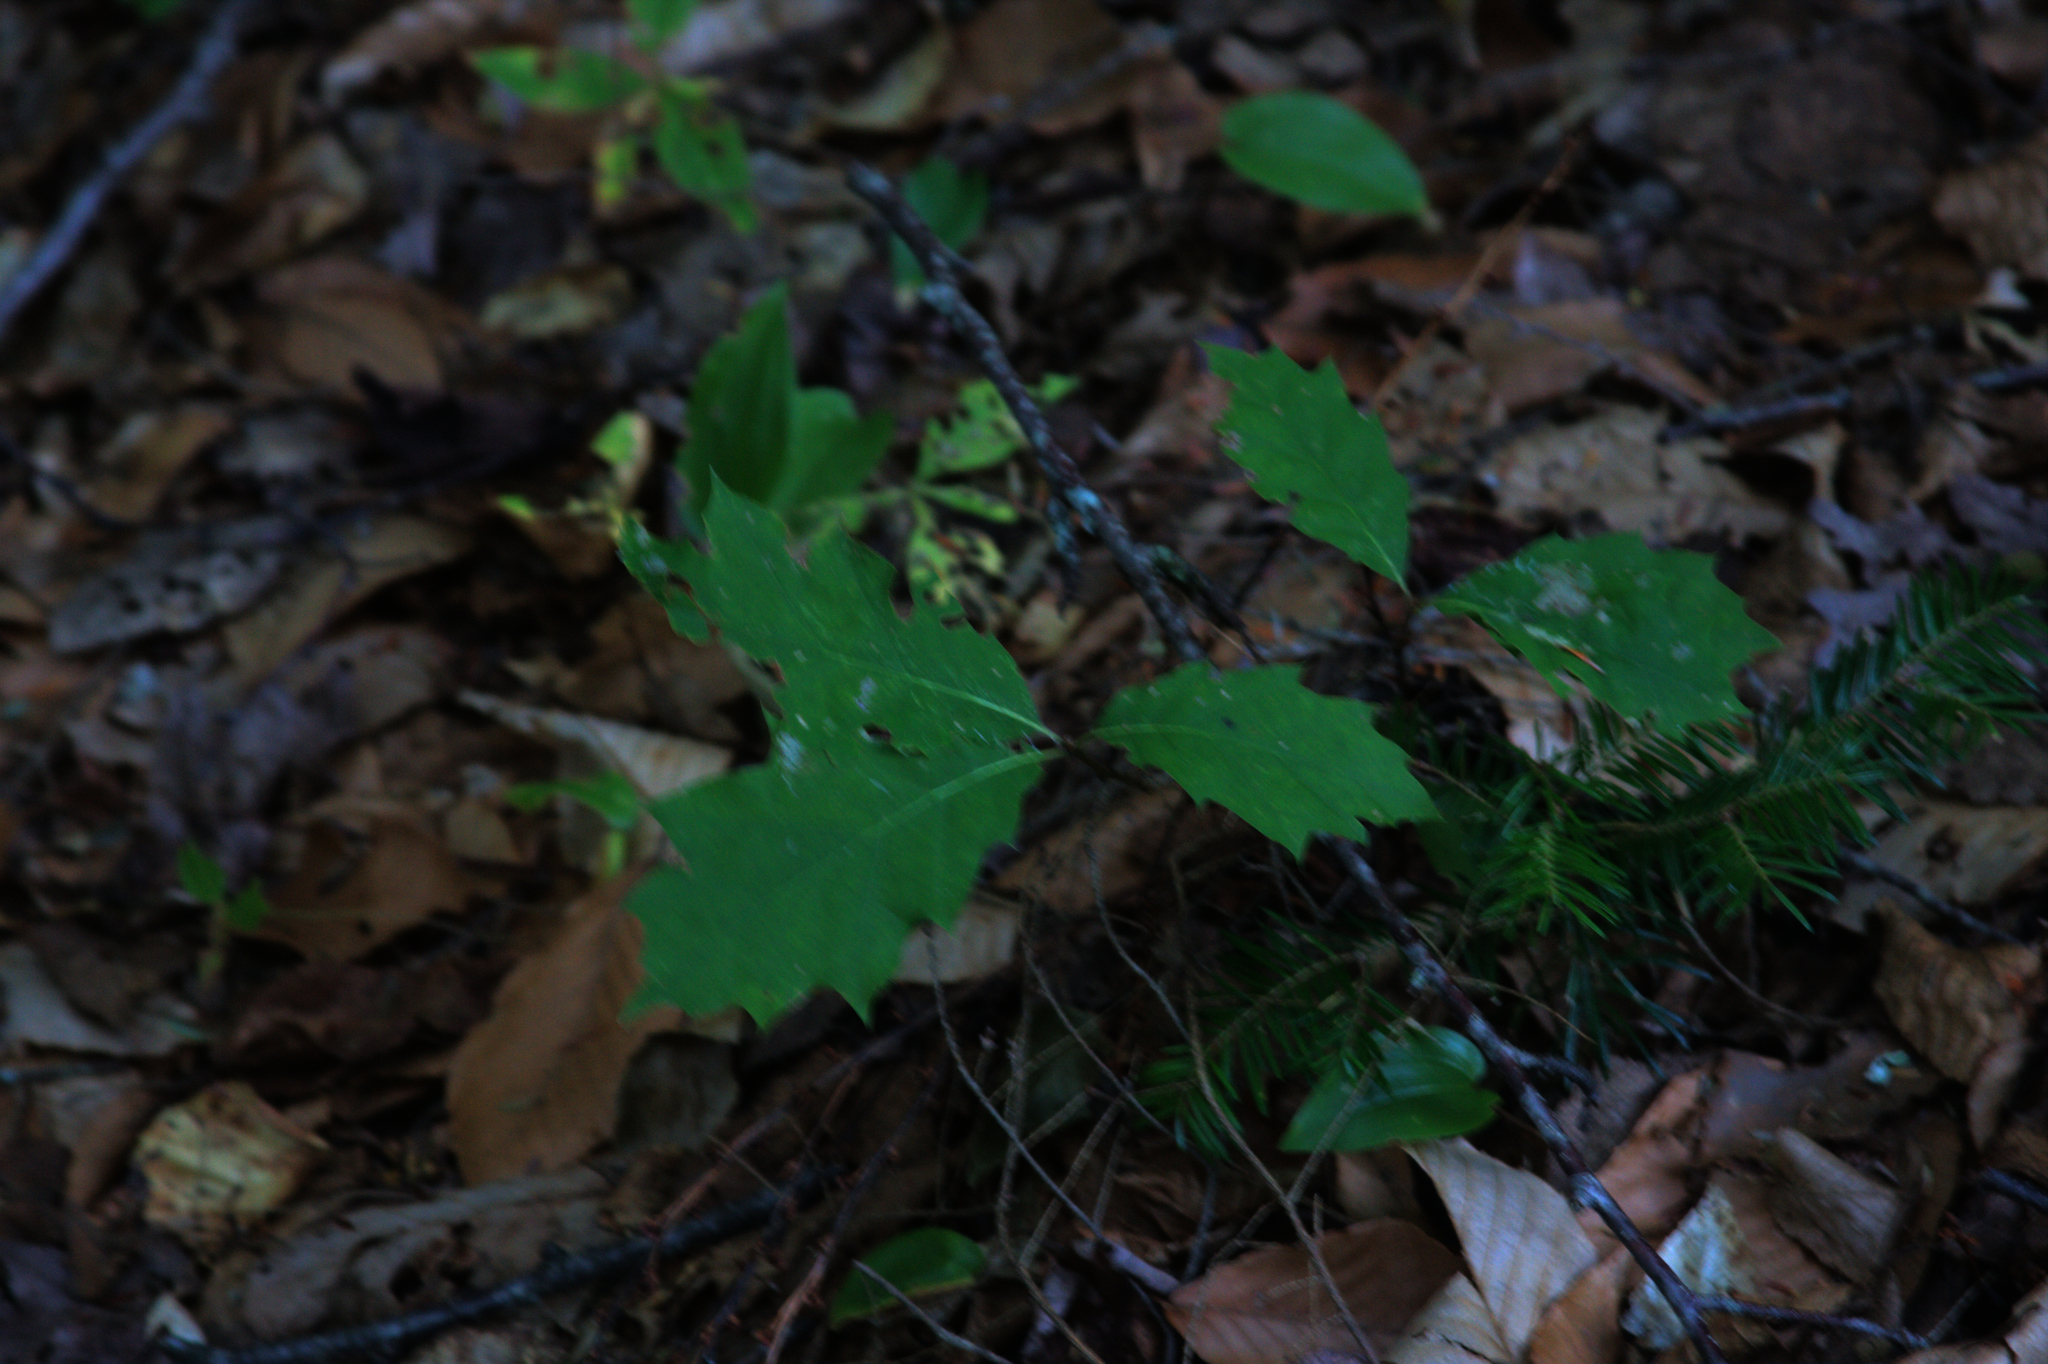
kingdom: Plantae
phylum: Tracheophyta
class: Liliopsida
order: Asparagales
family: Asparagaceae
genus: Maianthemum
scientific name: Maianthemum canadense
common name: False lily-of-the-valley
